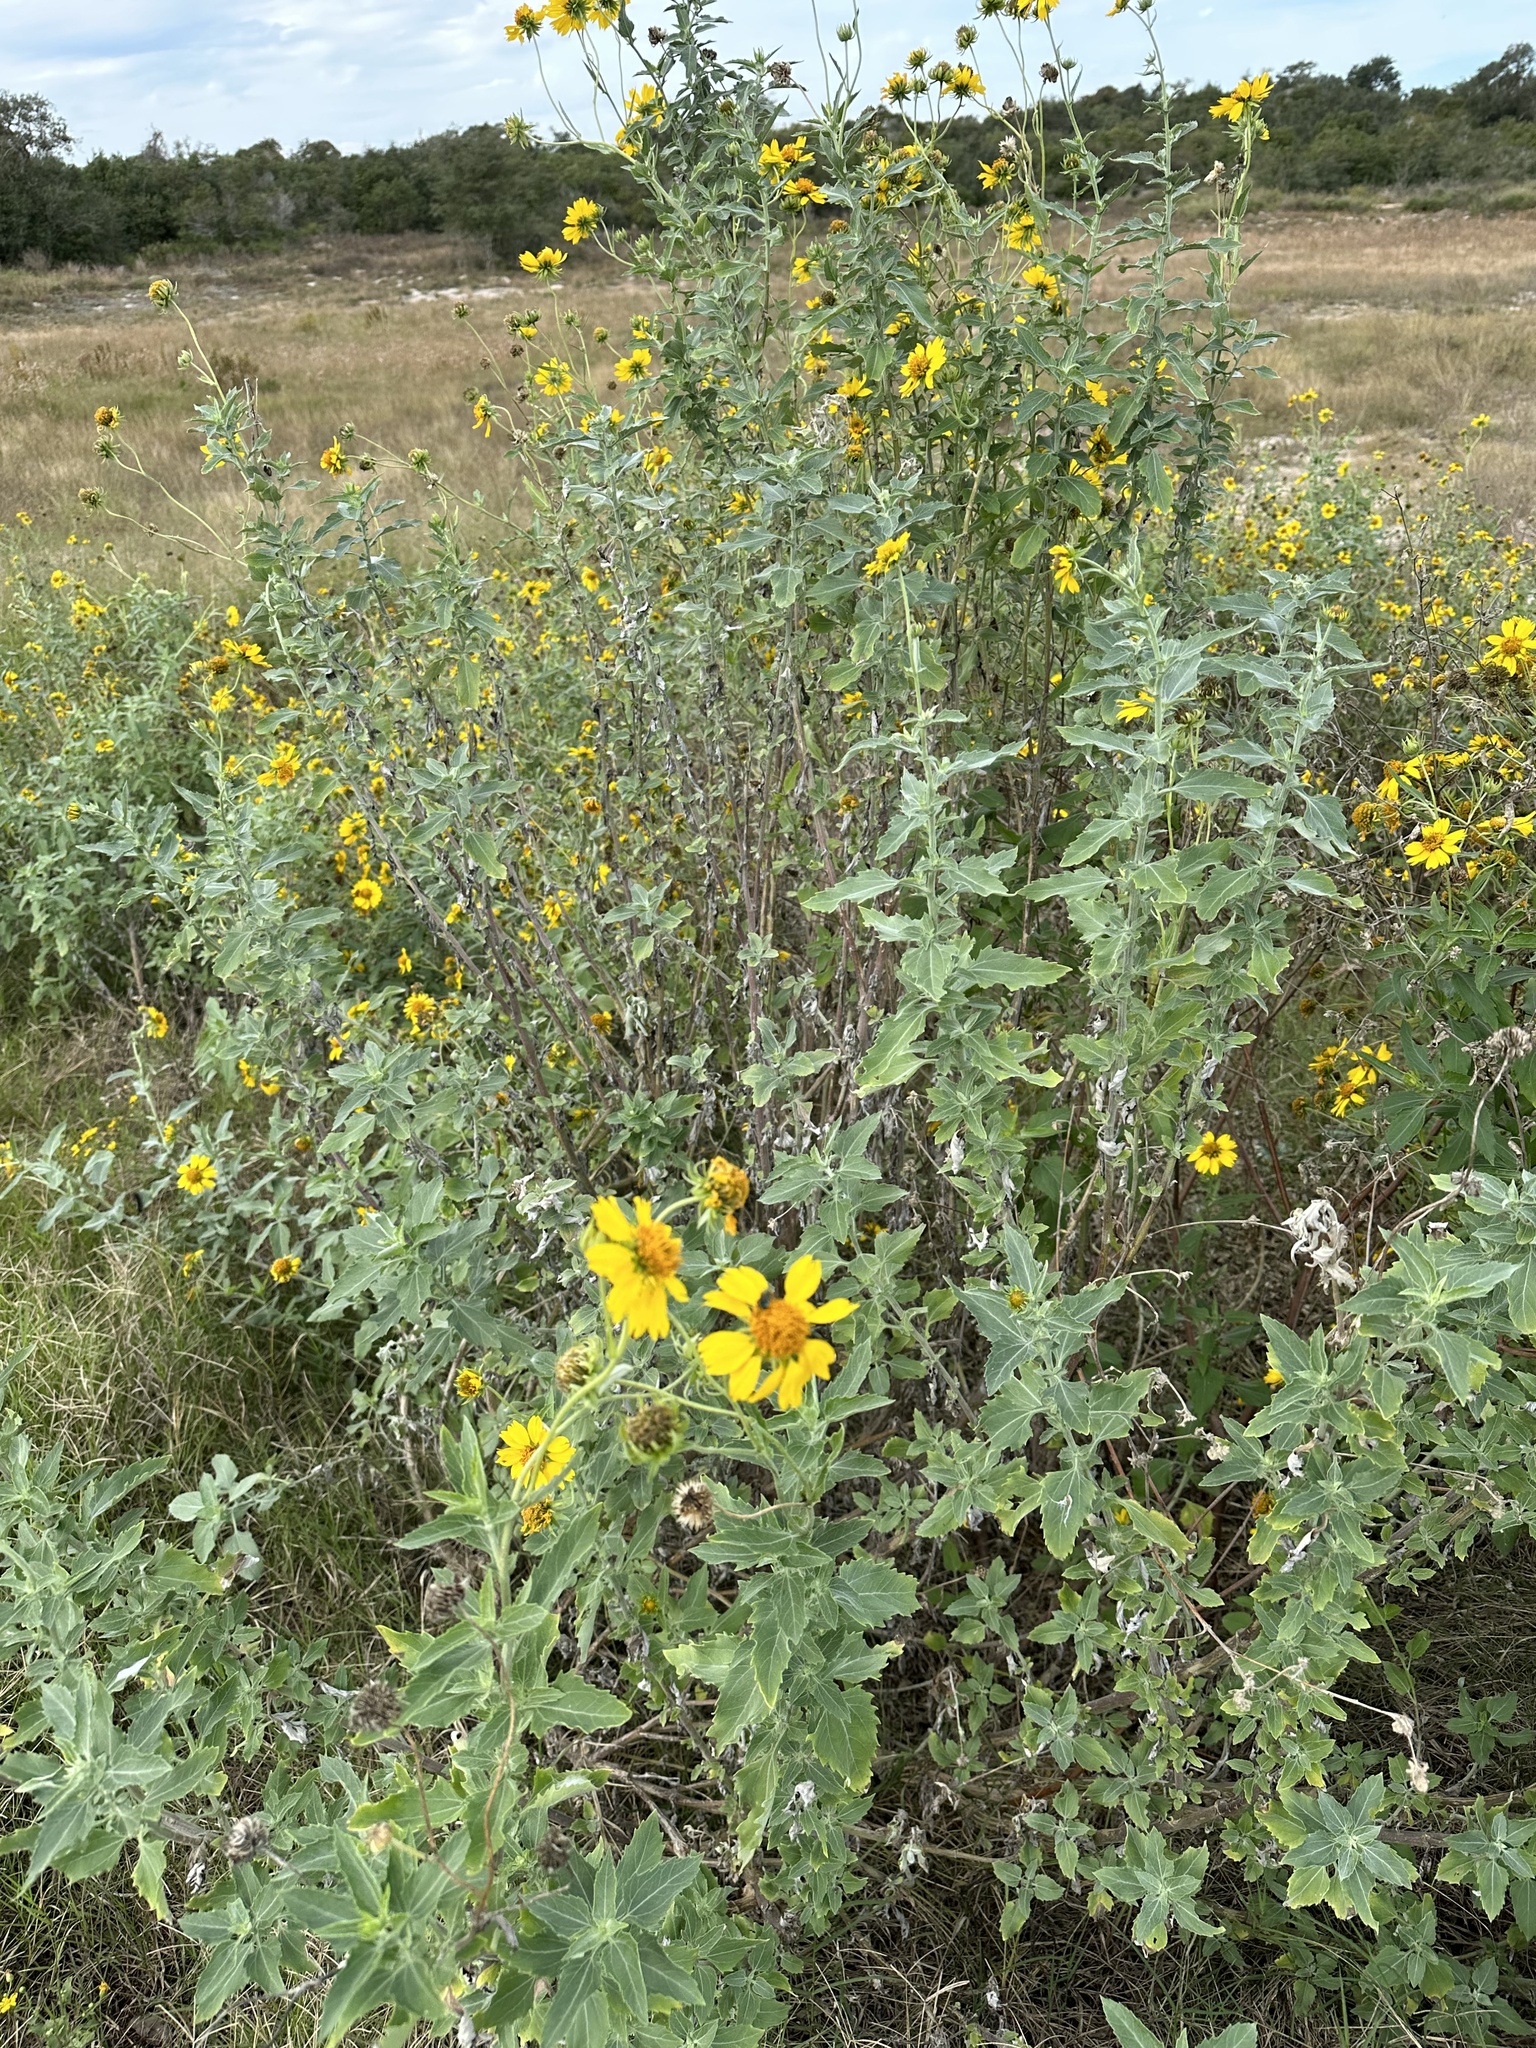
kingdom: Plantae
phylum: Tracheophyta
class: Magnoliopsida
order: Asterales
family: Asteraceae
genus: Verbesina
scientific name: Verbesina encelioides
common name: Golden crownbeard
